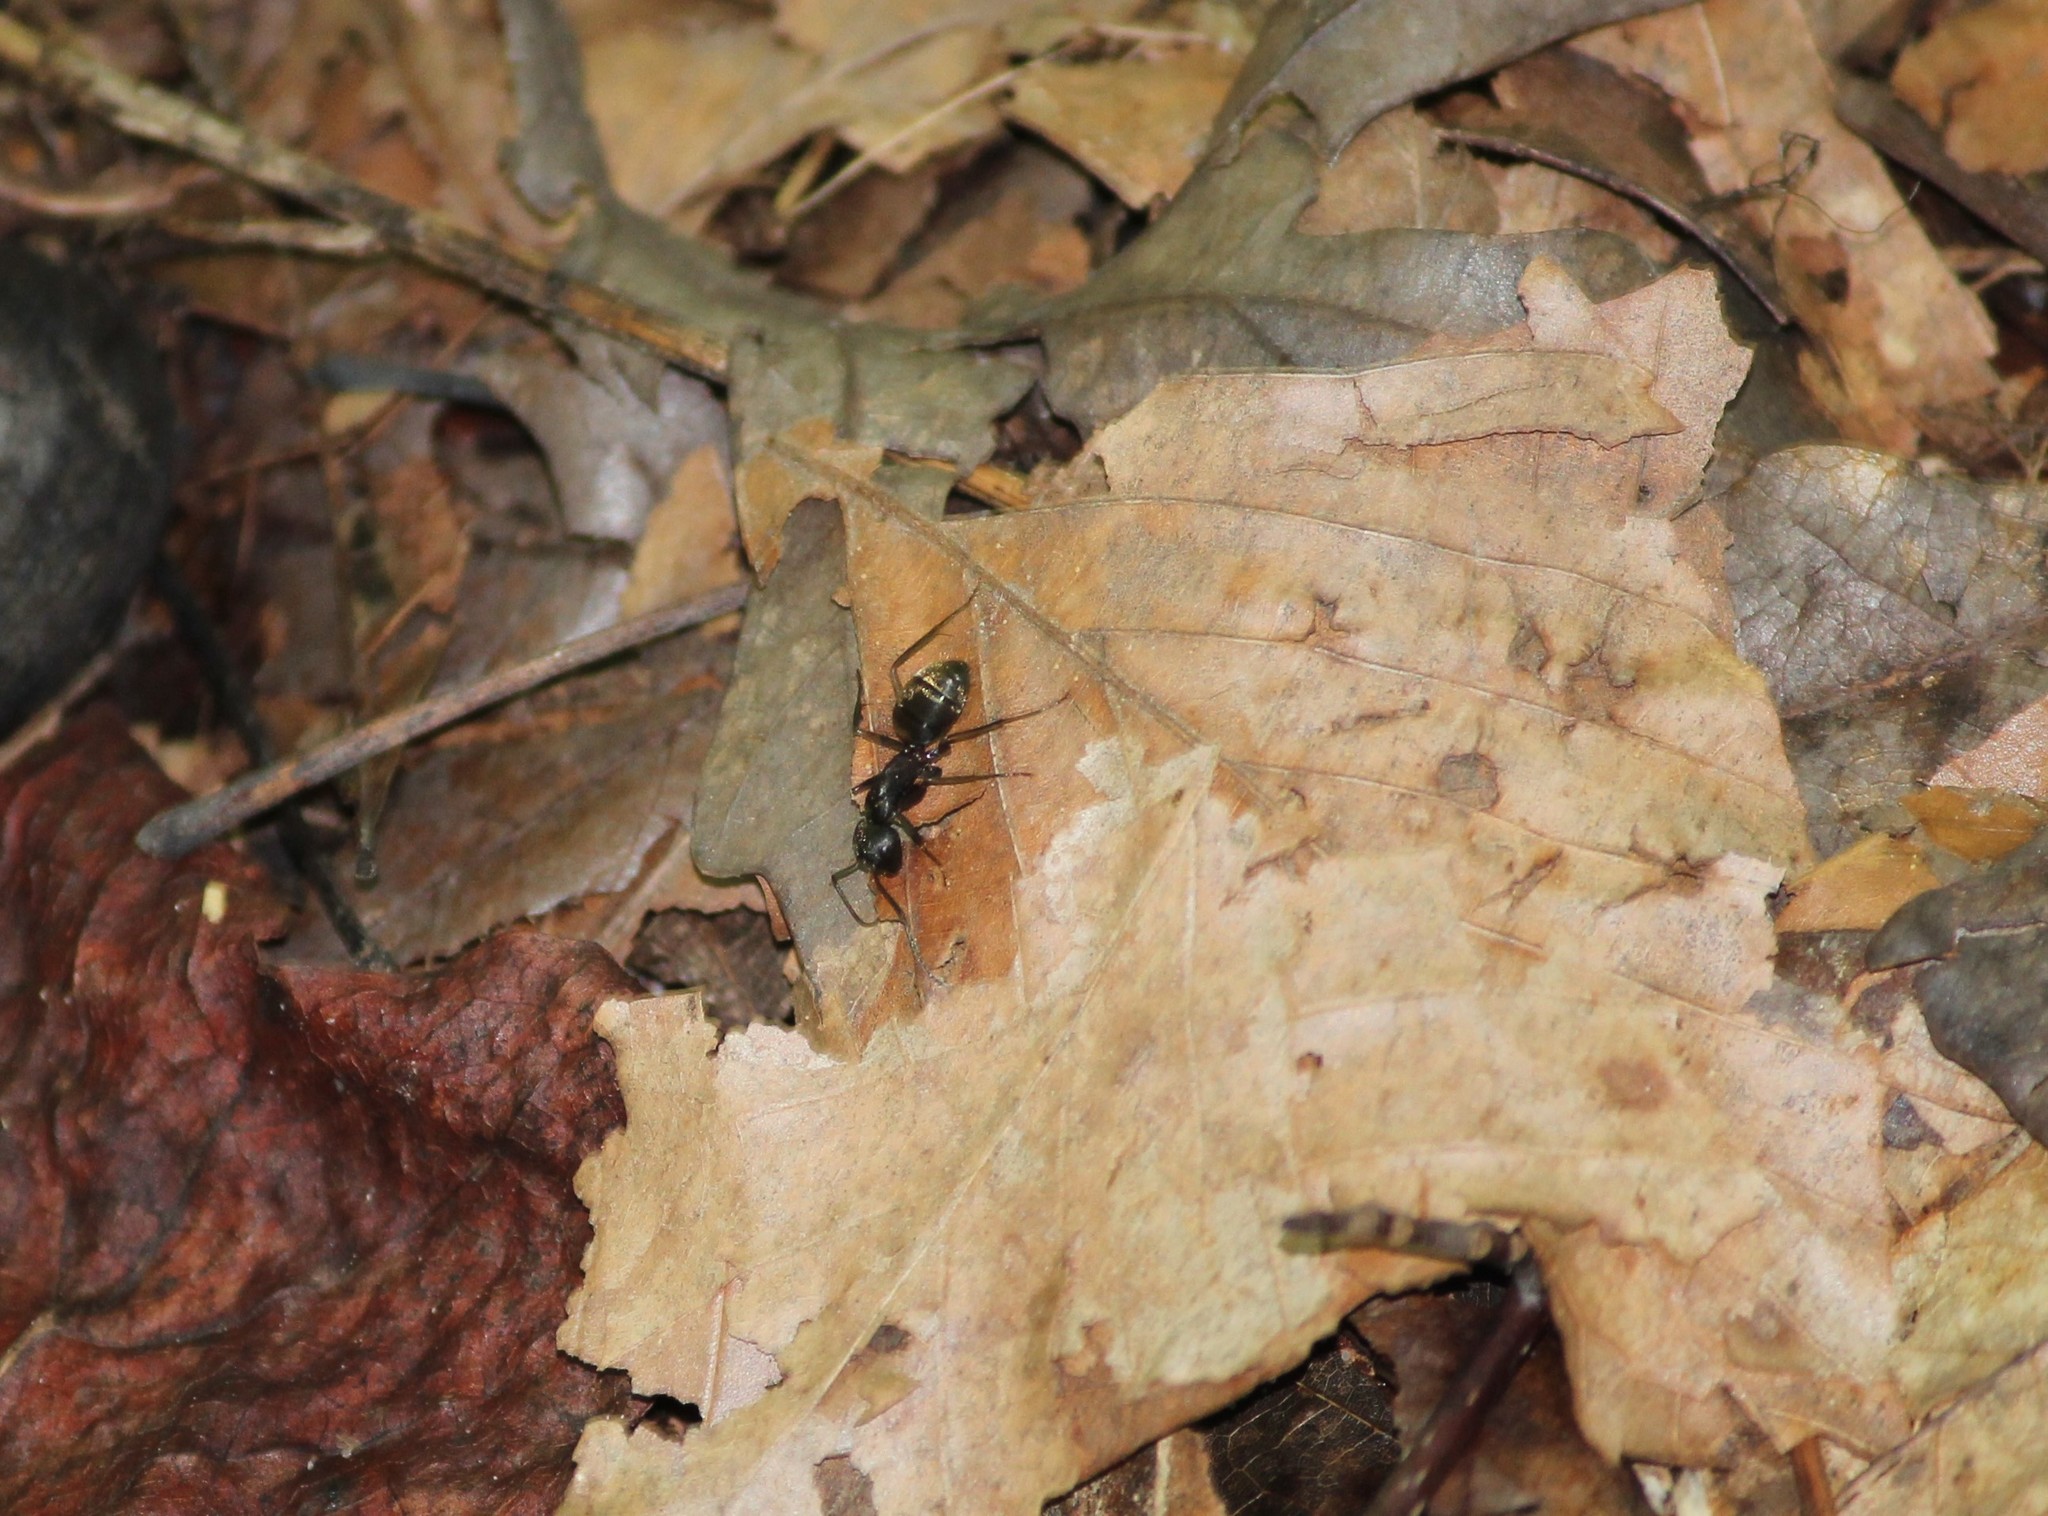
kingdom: Animalia
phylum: Arthropoda
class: Insecta
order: Hymenoptera
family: Formicidae
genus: Camponotus
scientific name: Camponotus pennsylvanicus
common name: Black carpenter ant
